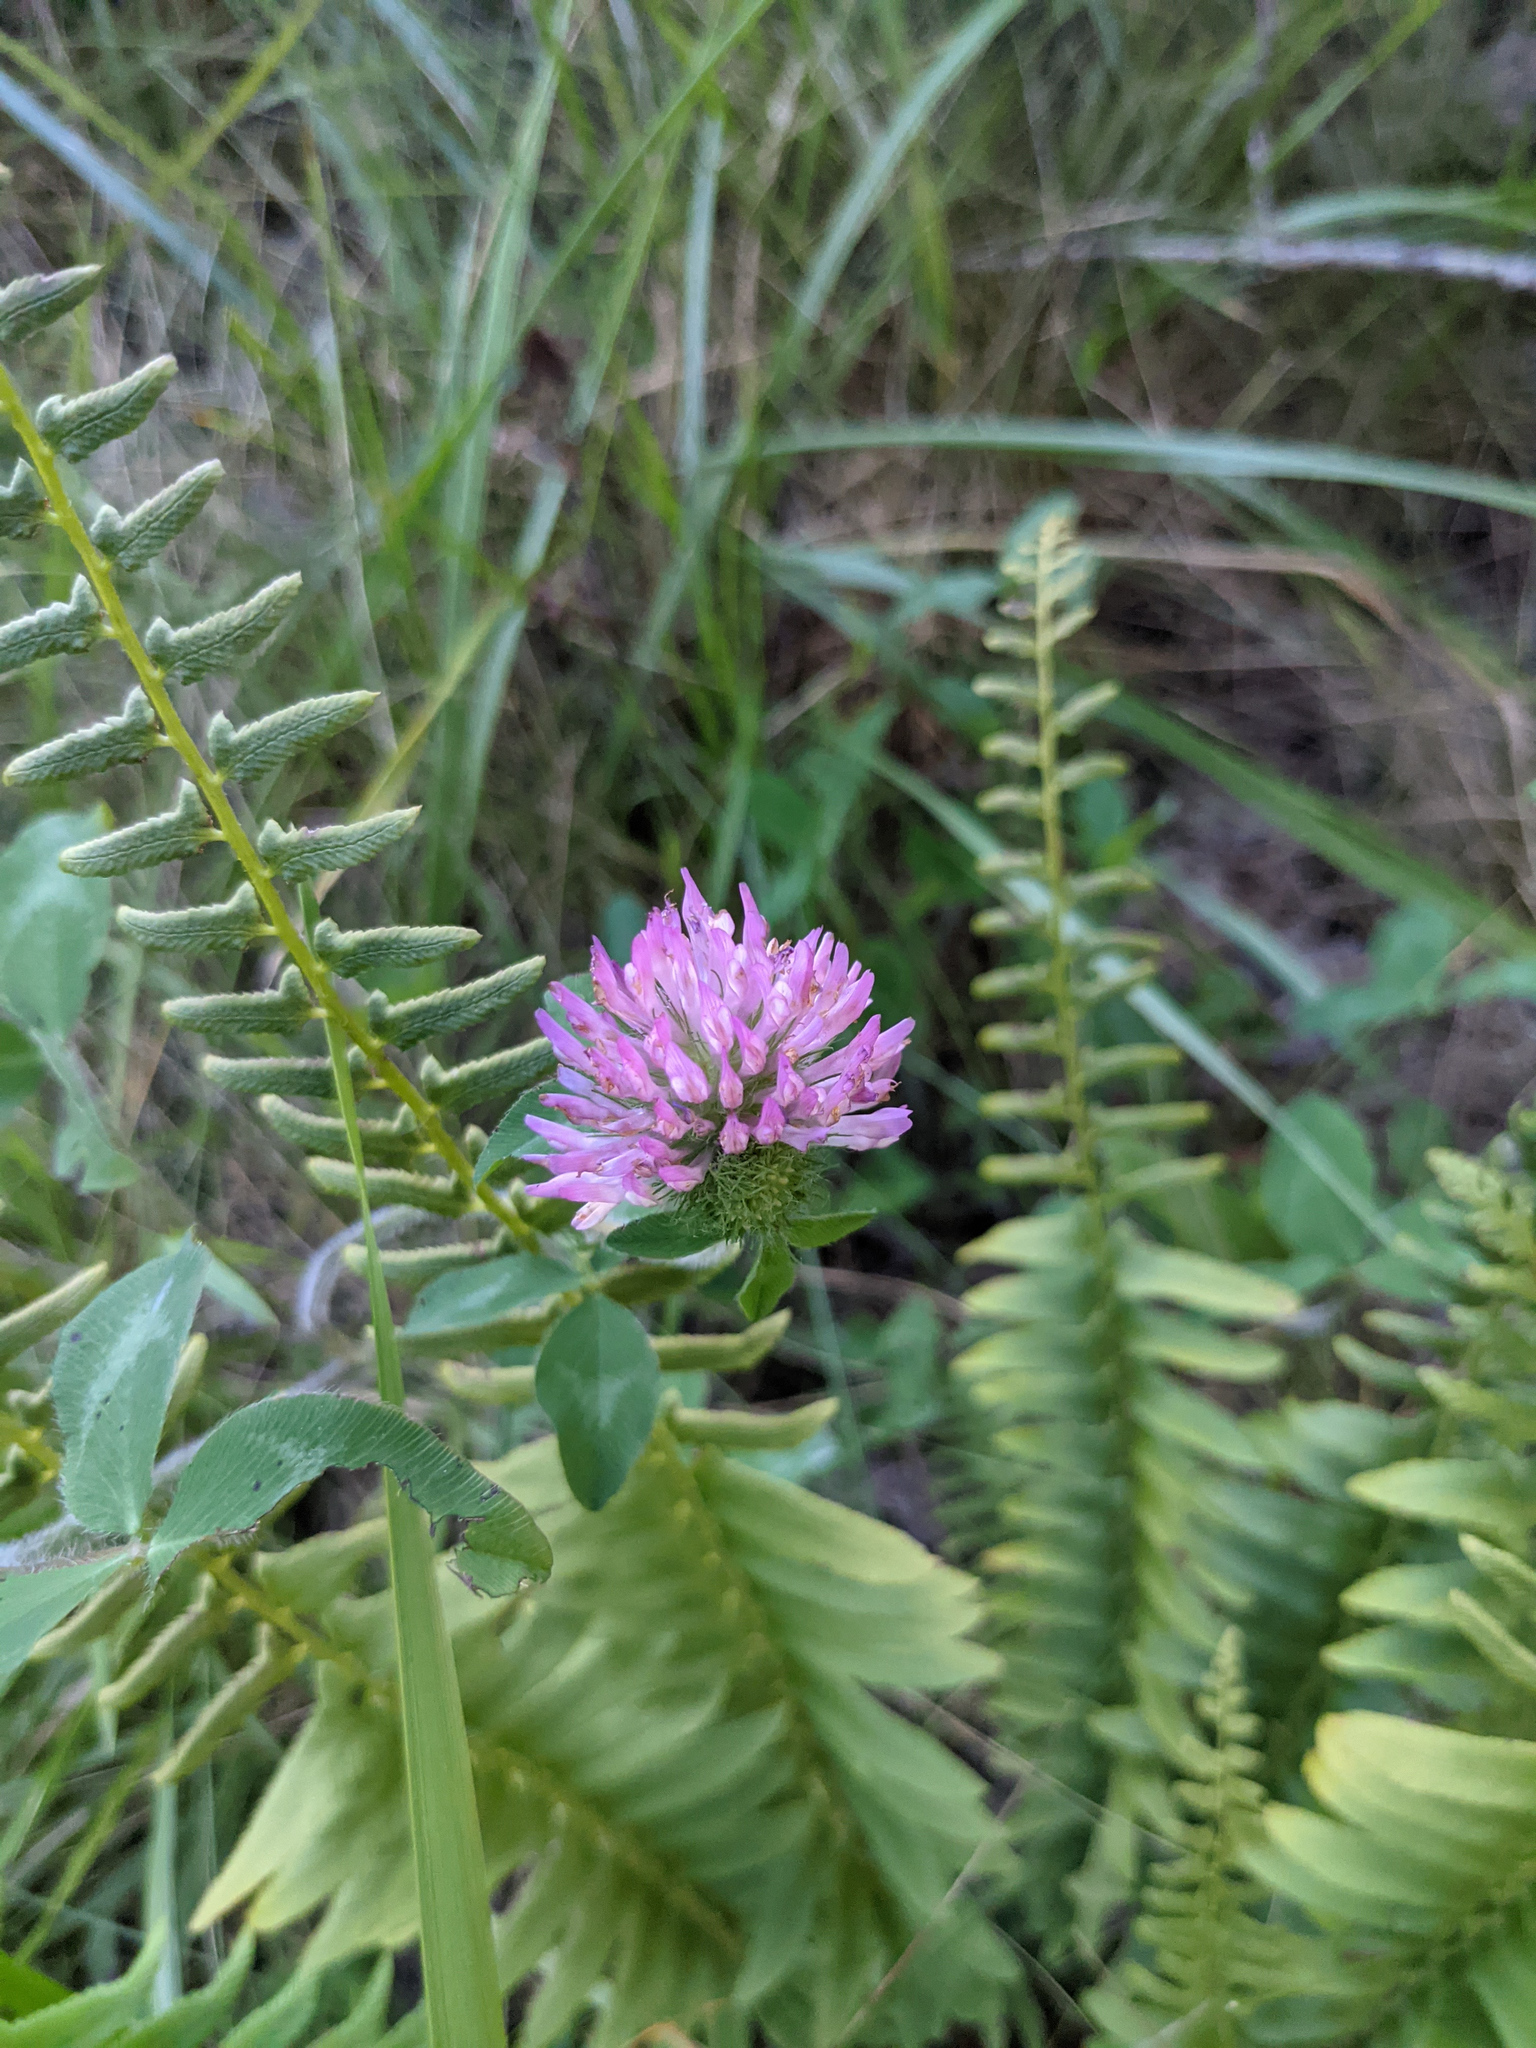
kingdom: Plantae
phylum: Tracheophyta
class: Magnoliopsida
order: Fabales
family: Fabaceae
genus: Trifolium
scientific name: Trifolium pratense
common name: Red clover
